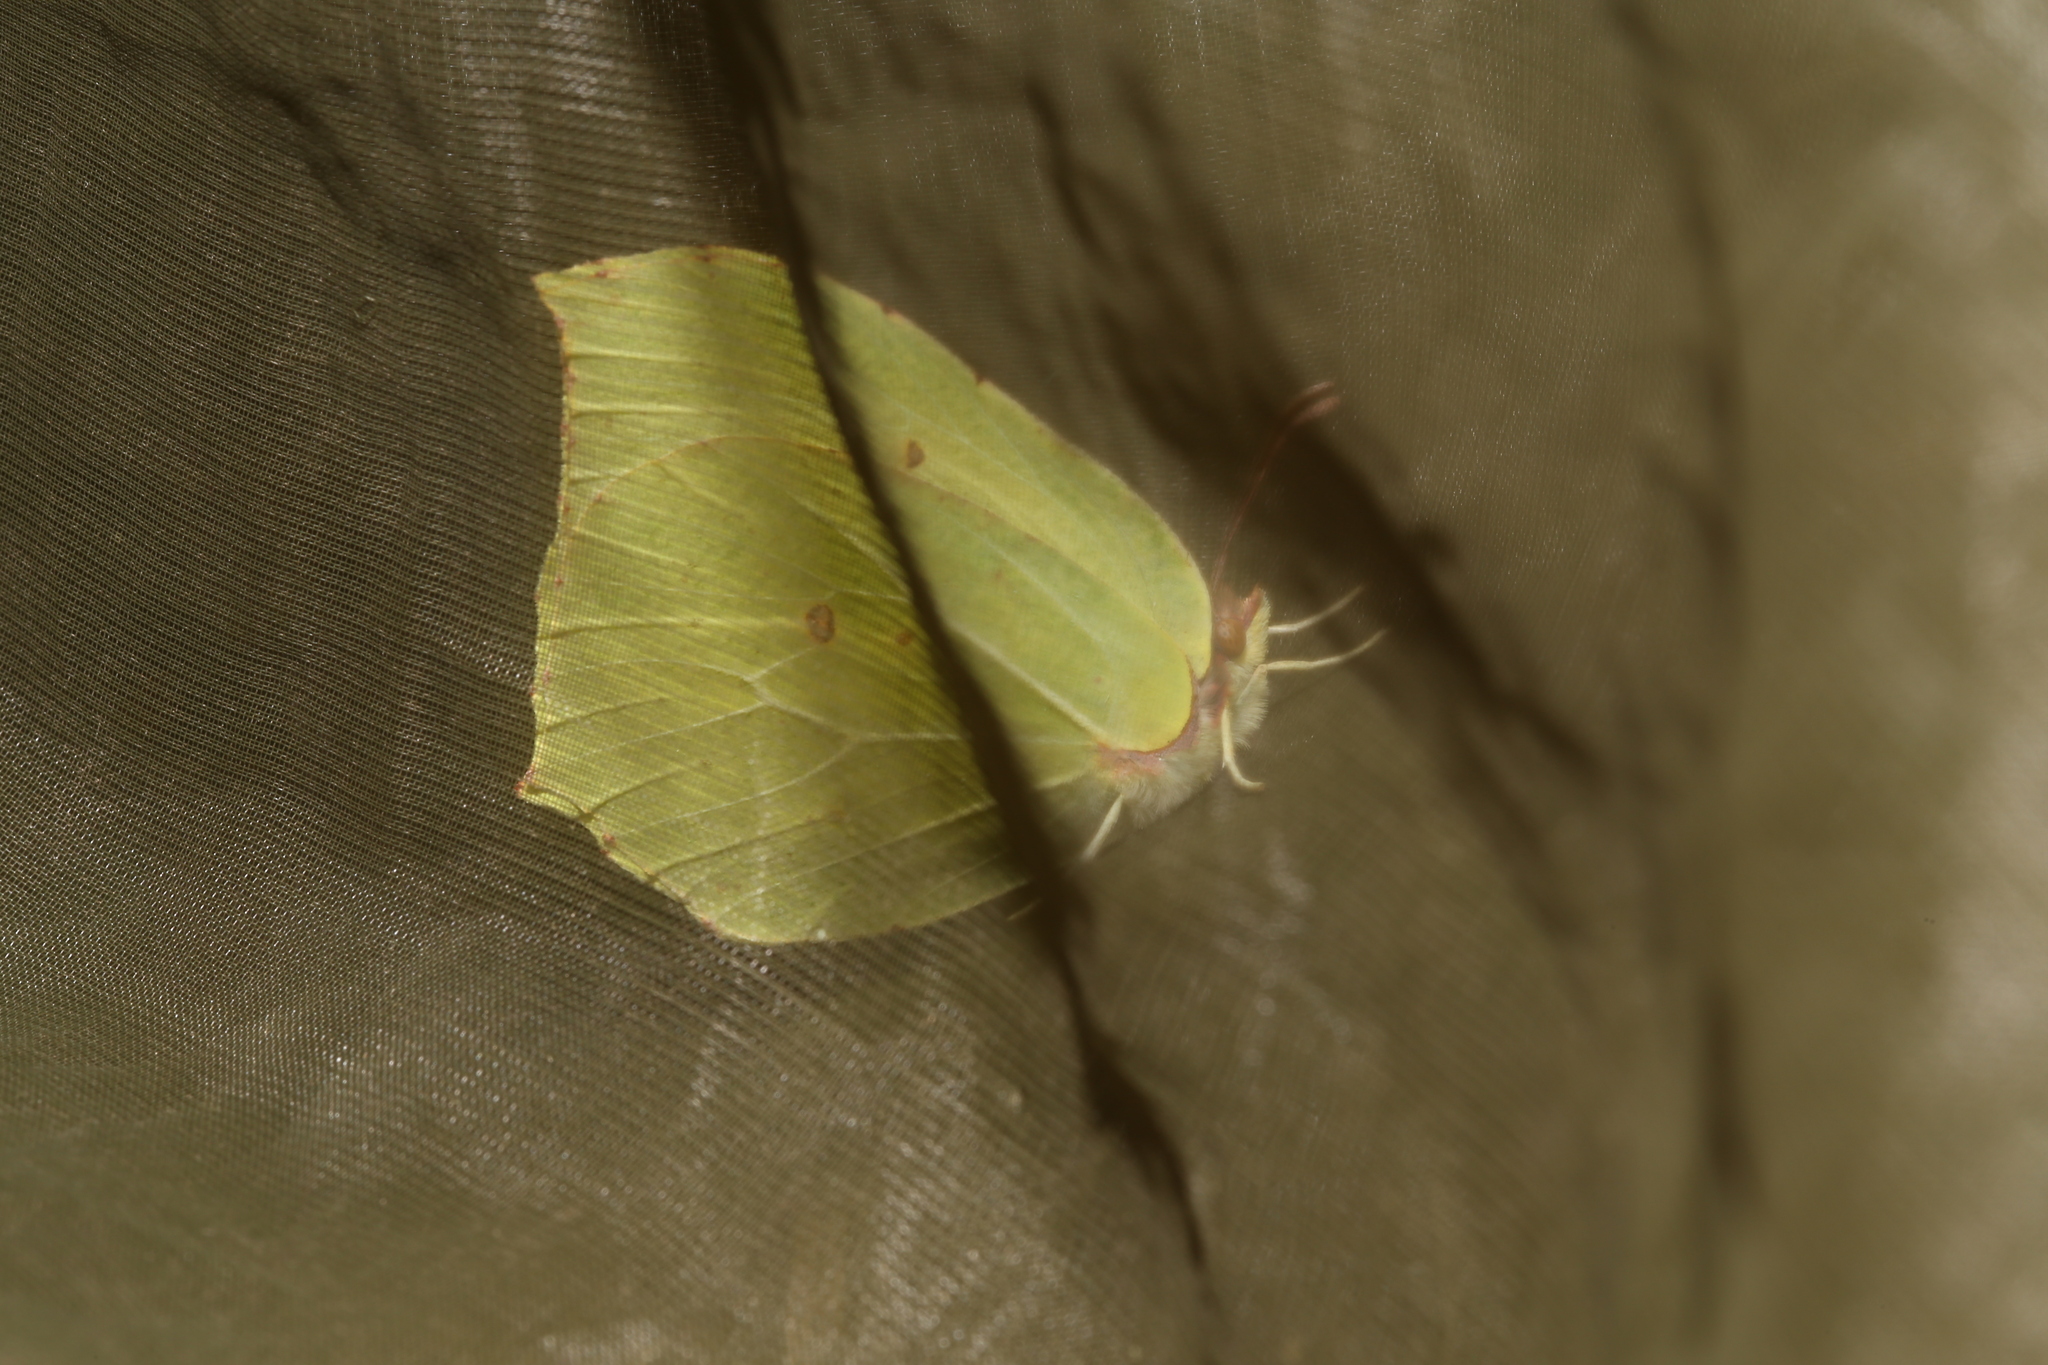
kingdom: Animalia
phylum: Arthropoda
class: Insecta
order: Lepidoptera
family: Pieridae
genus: Gonepteryx
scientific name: Gonepteryx rhamni
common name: Brimstone
